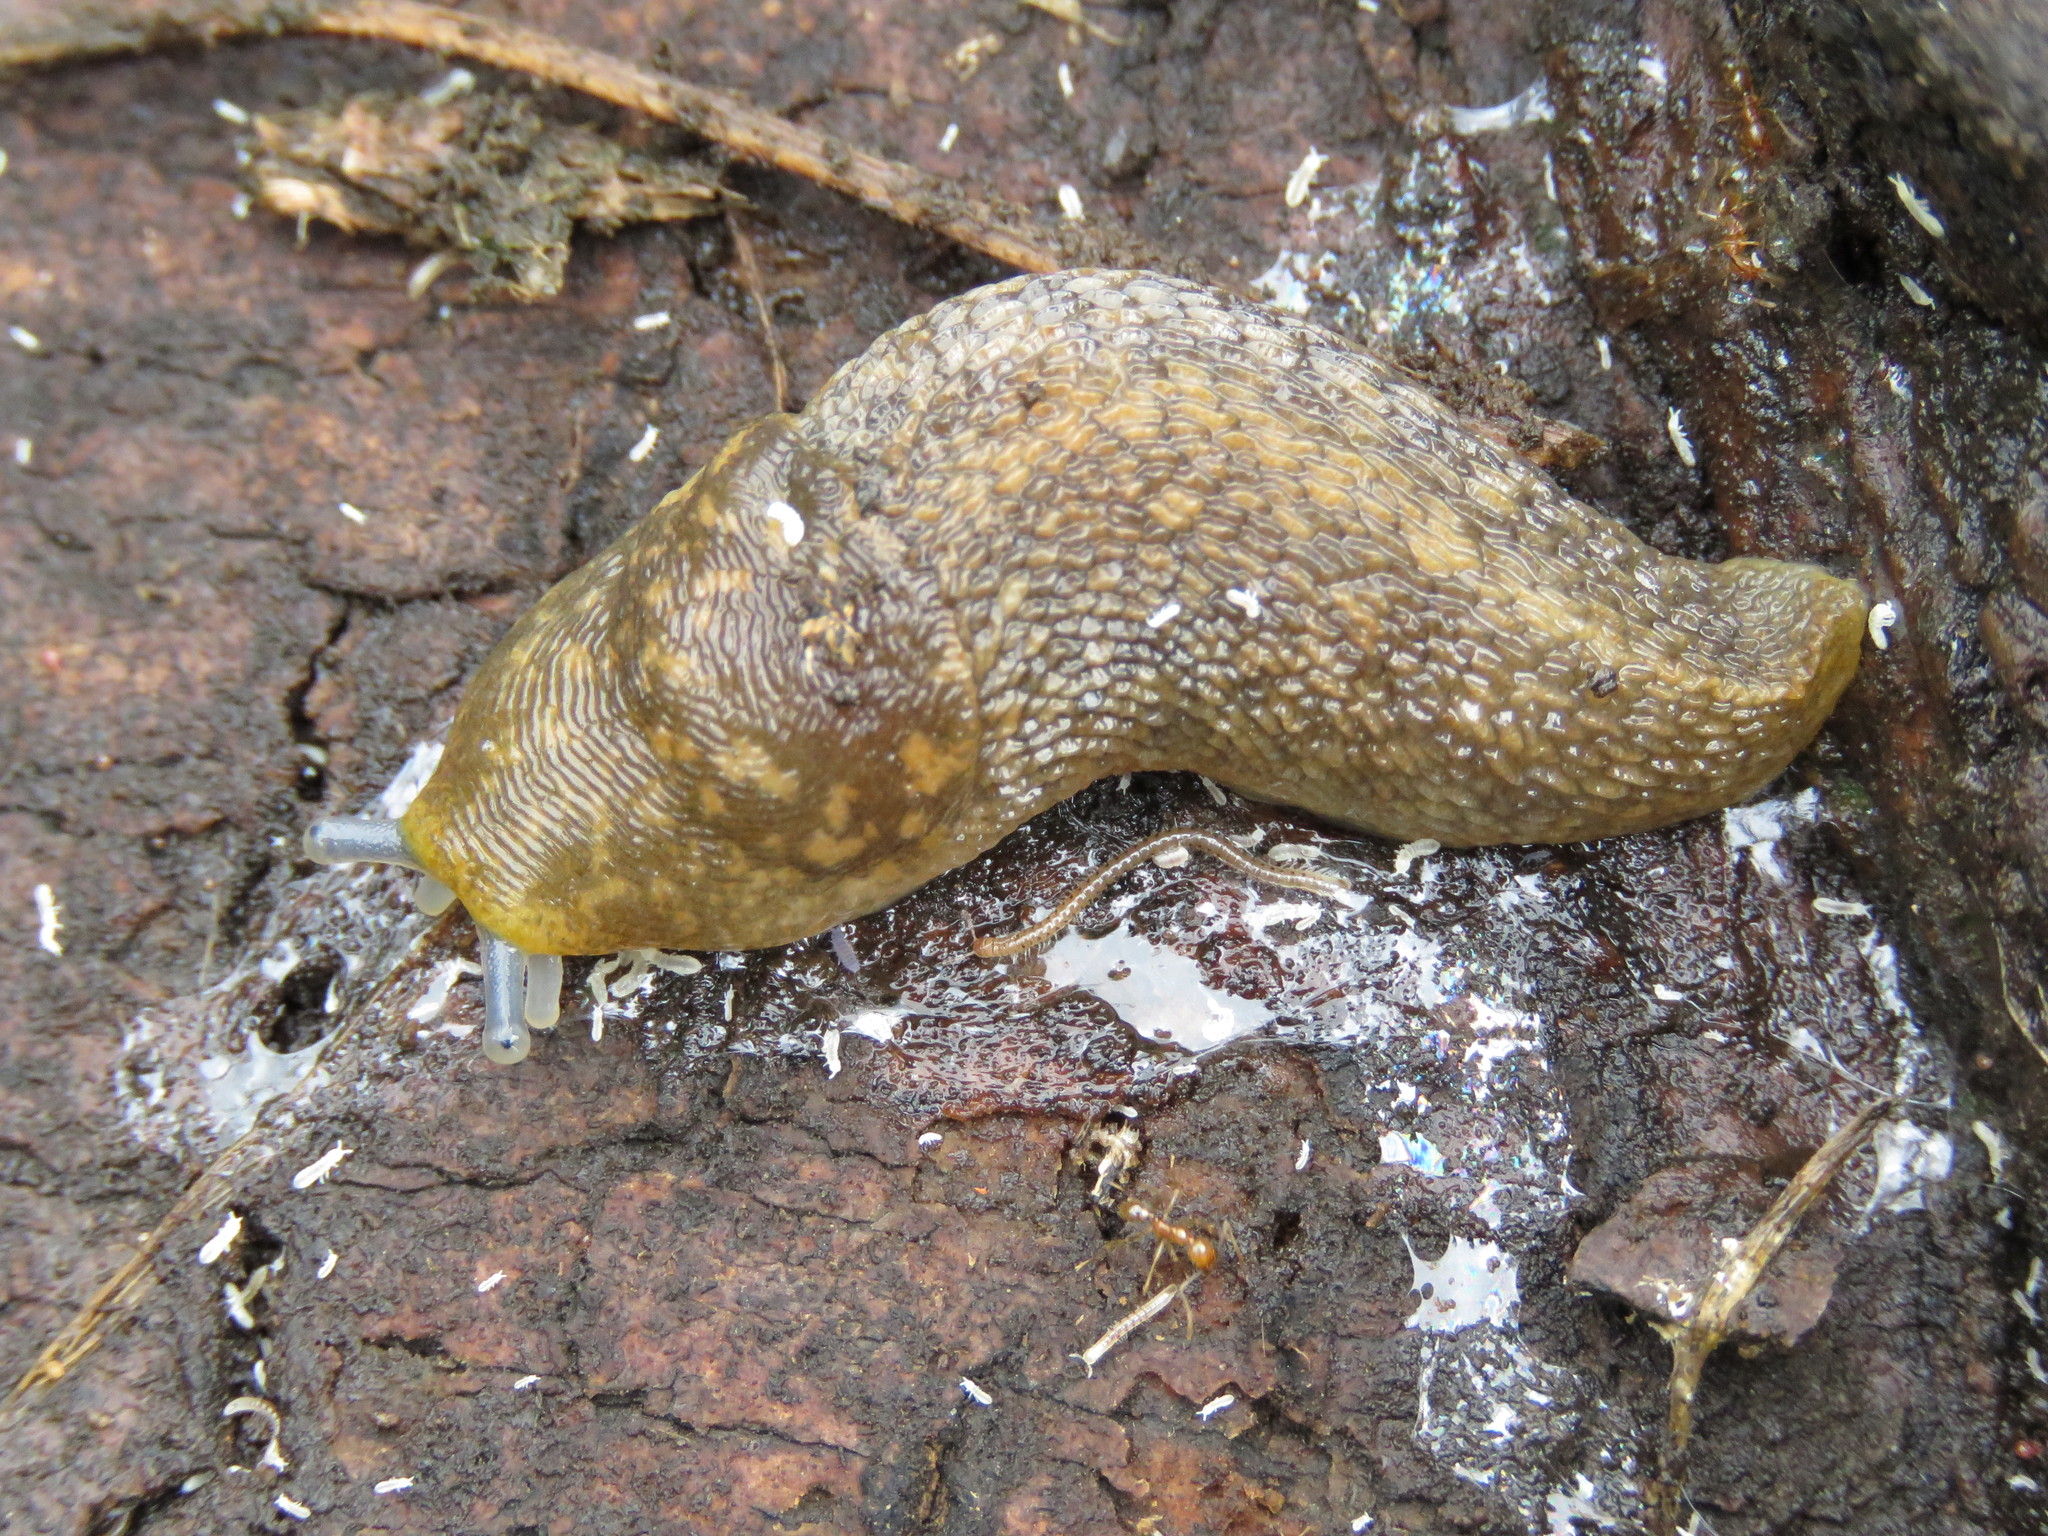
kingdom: Animalia
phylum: Mollusca
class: Gastropoda
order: Stylommatophora
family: Limacidae
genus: Limacus
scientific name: Limacus flavus
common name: Yellow gardenslug
